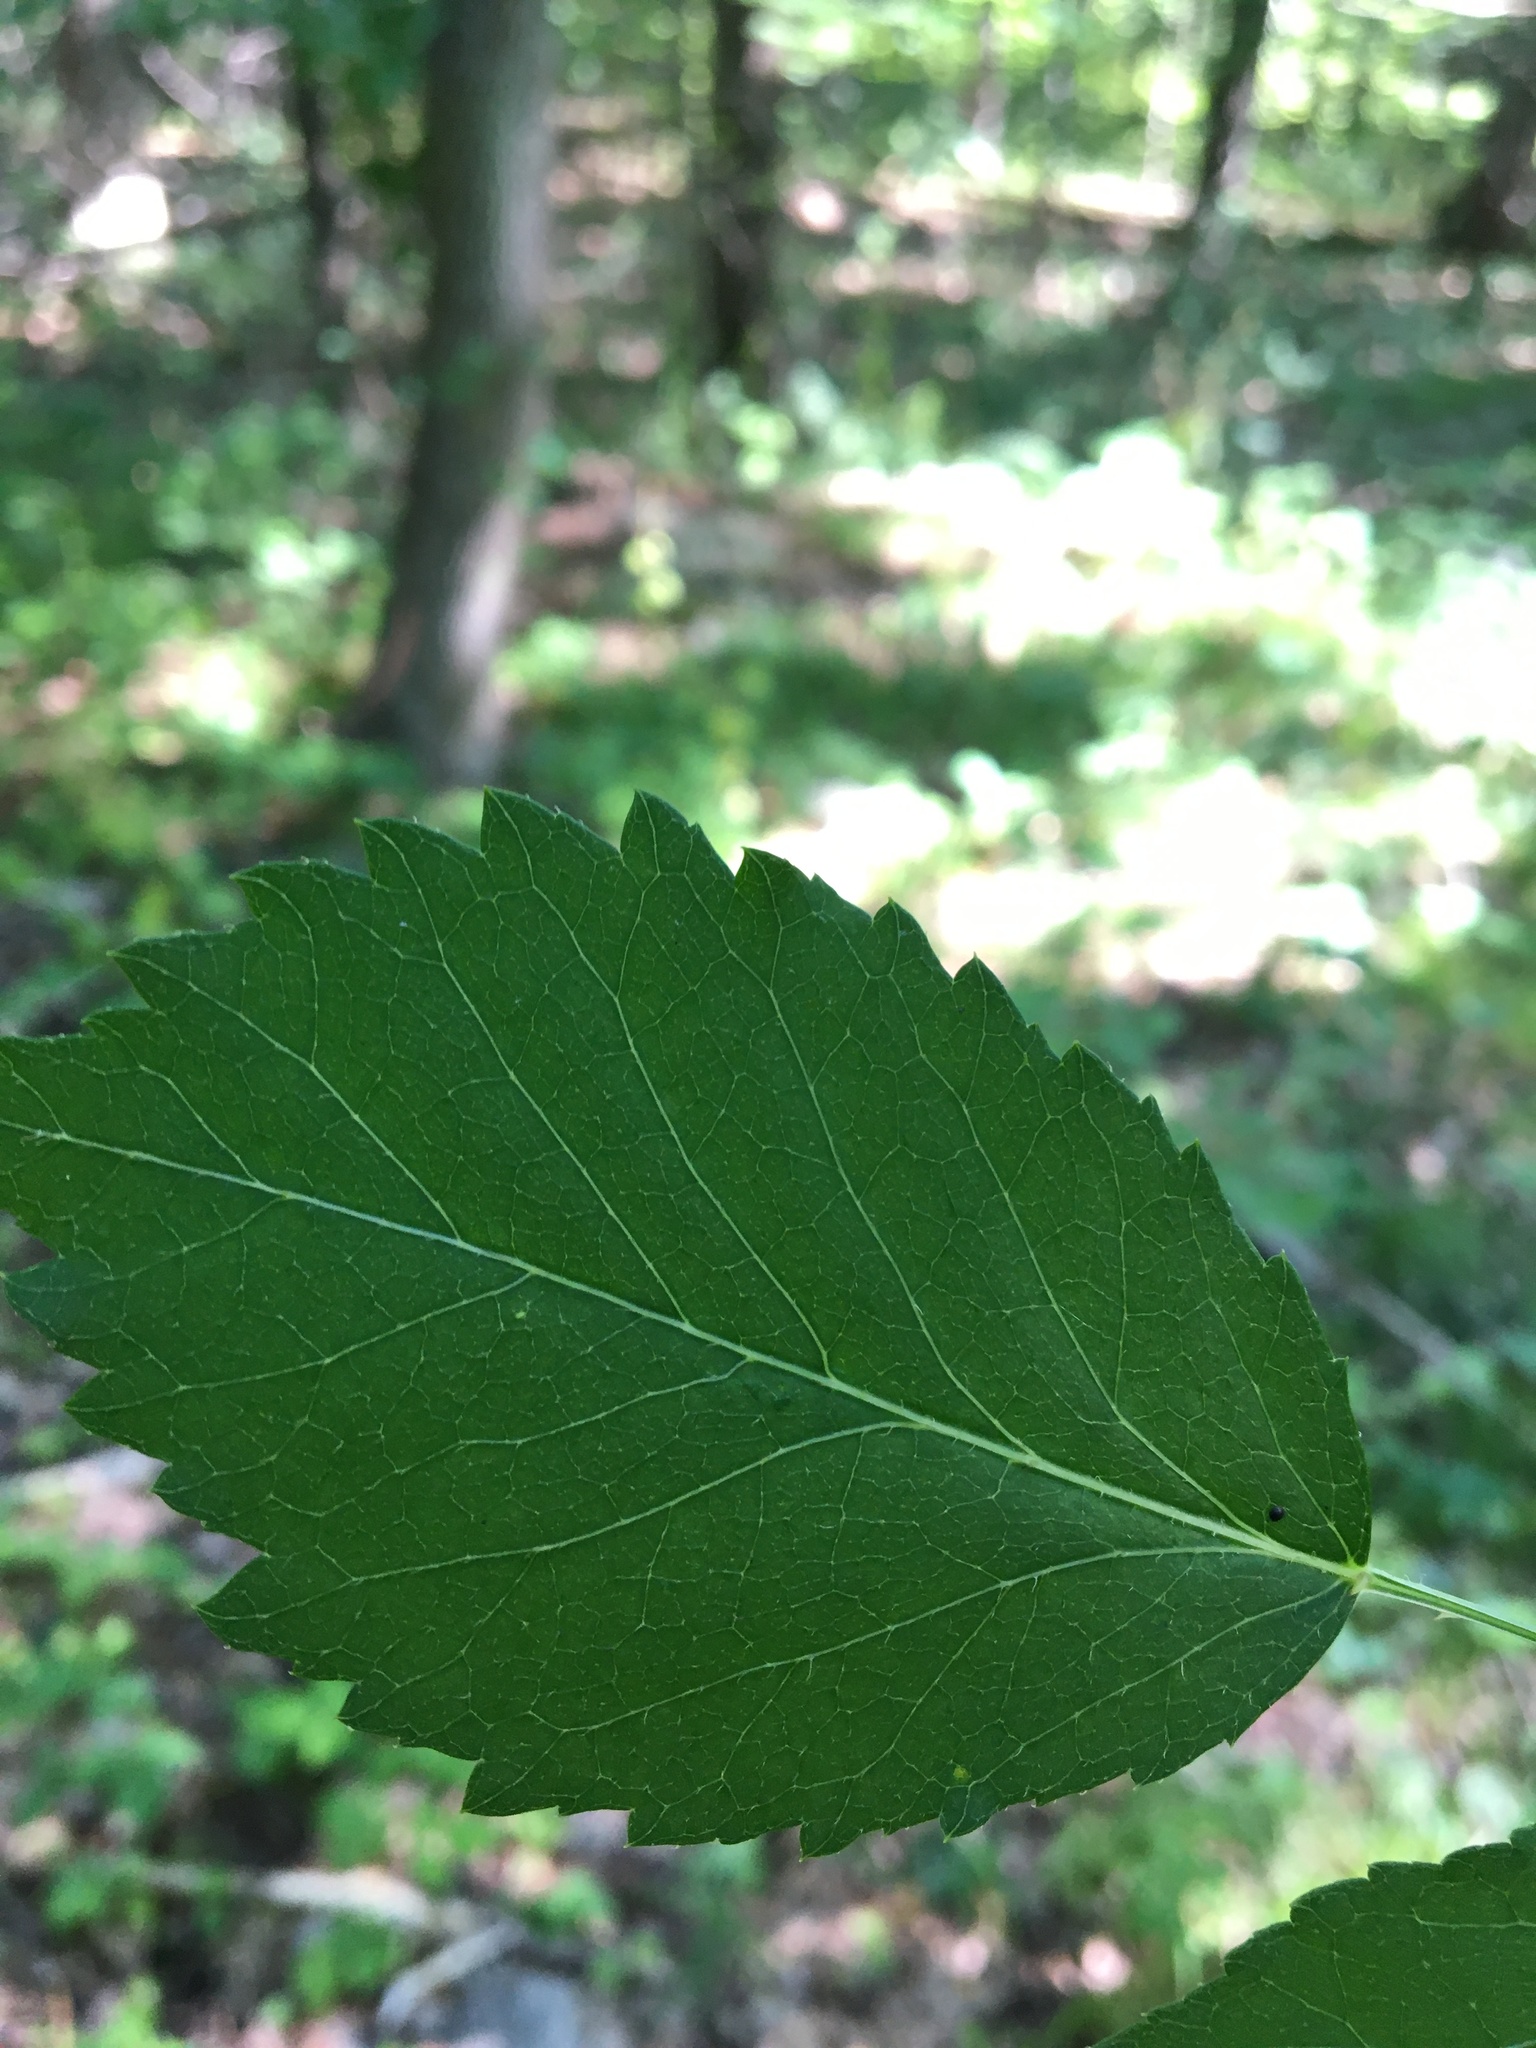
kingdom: Plantae
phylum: Tracheophyta
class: Magnoliopsida
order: Apiales
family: Araliaceae
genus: Aralia
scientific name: Aralia elata
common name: Japanese angelica-tree
